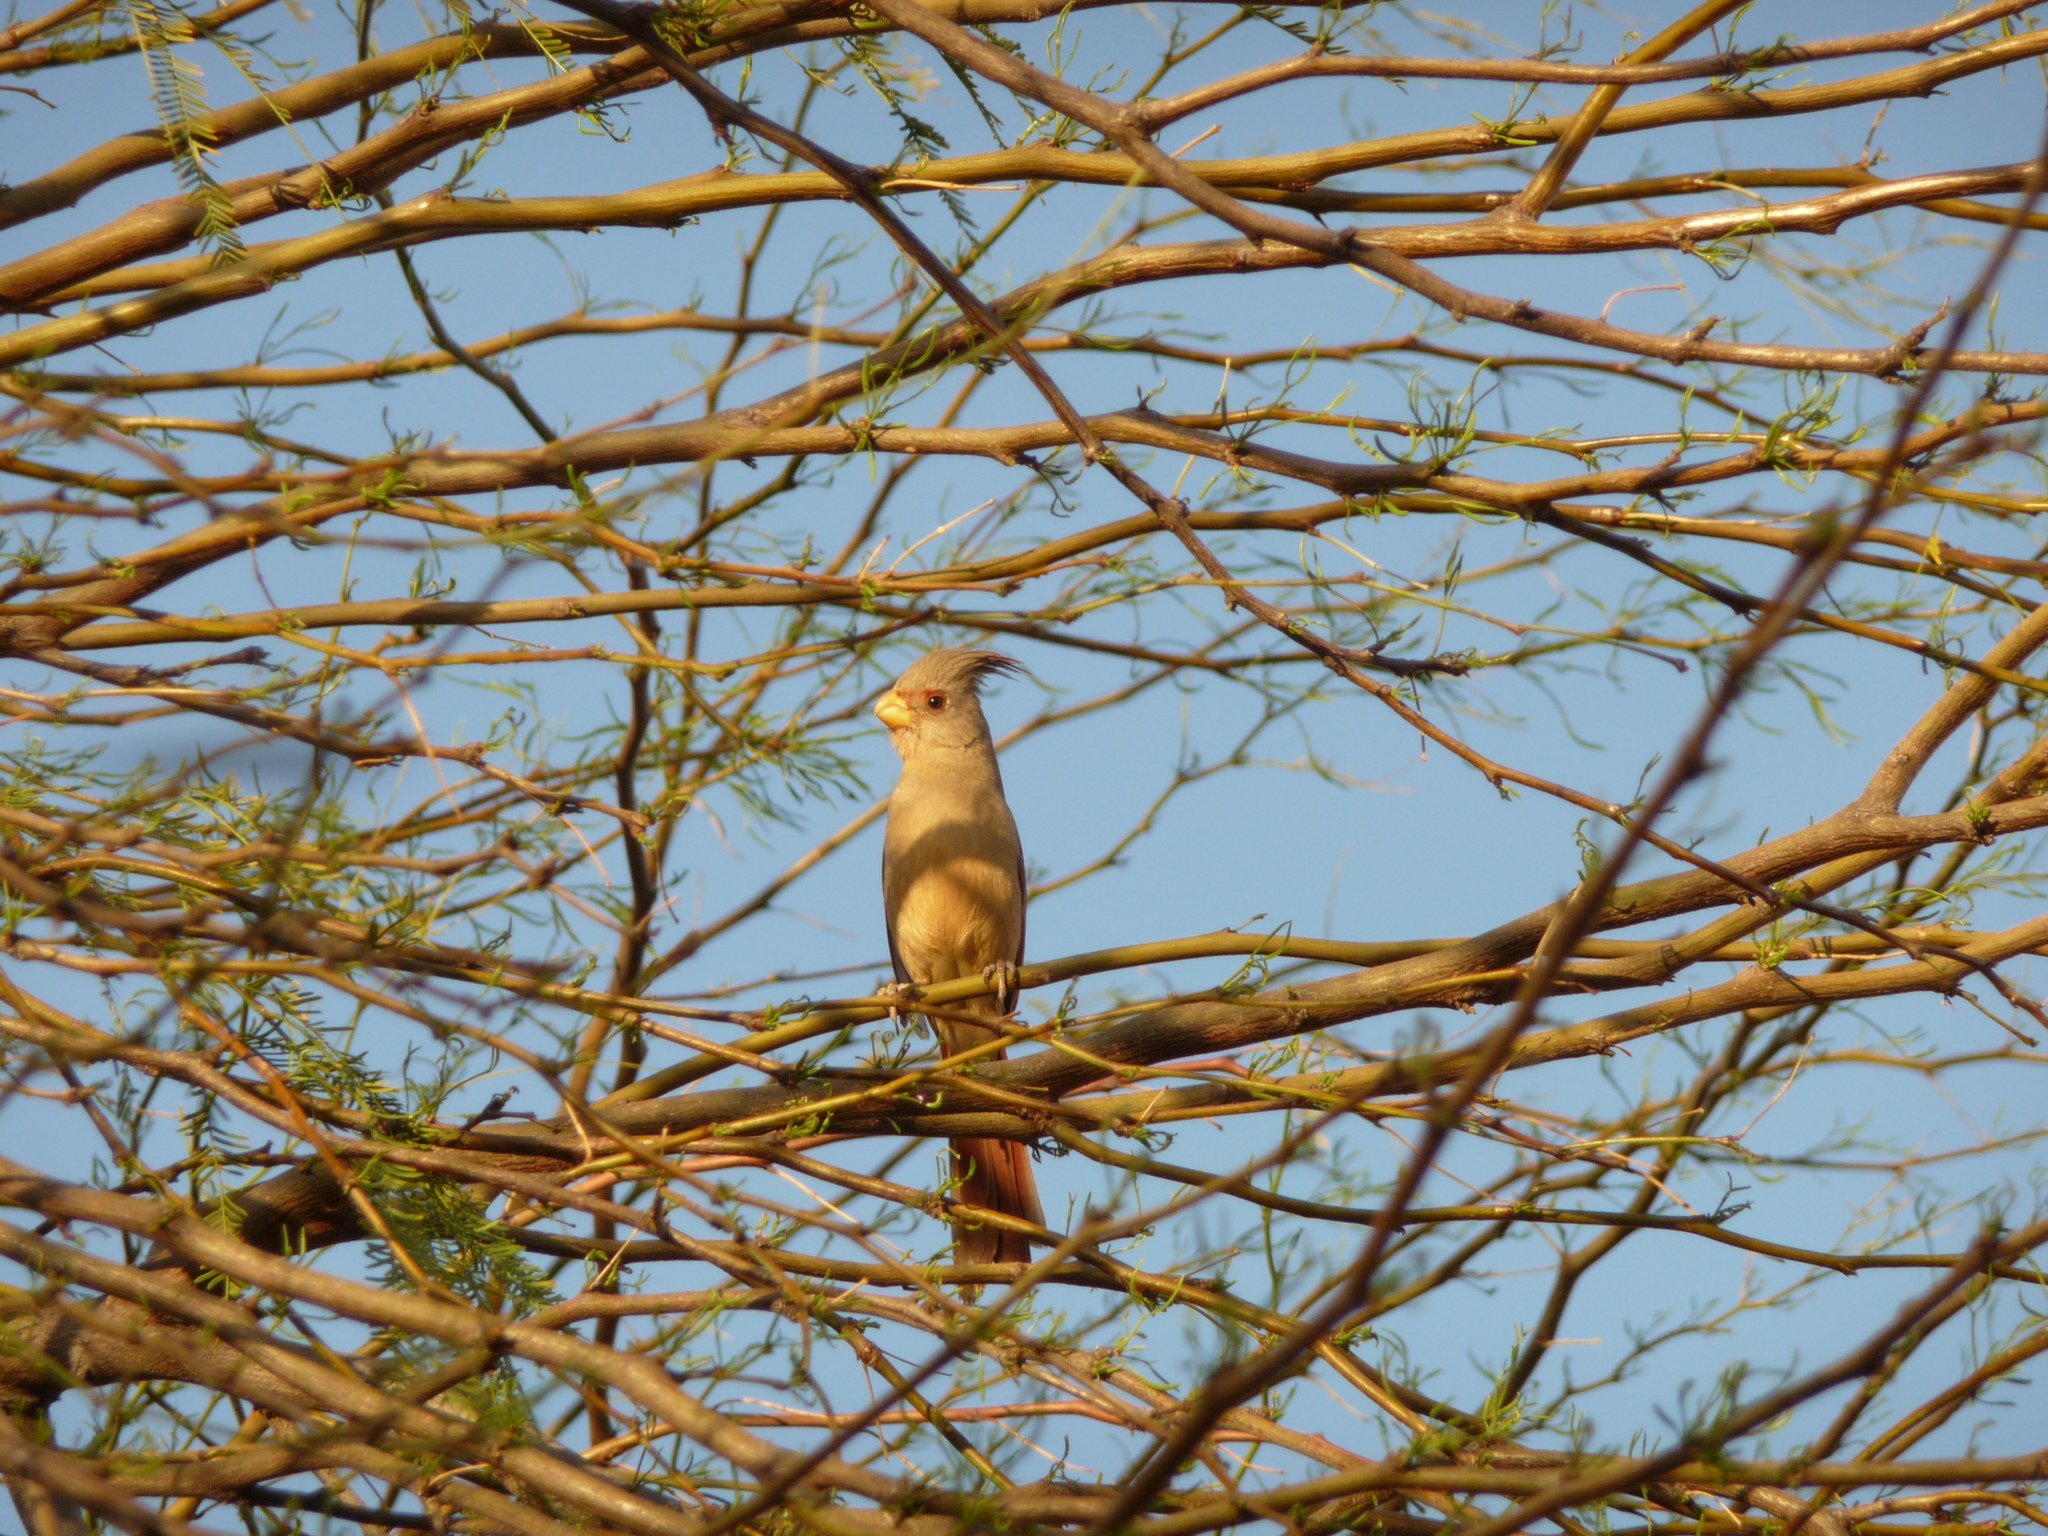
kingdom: Animalia
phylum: Chordata
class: Aves
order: Passeriformes
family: Cardinalidae
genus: Cardinalis
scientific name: Cardinalis sinuatus
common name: Pyrrhuloxia
